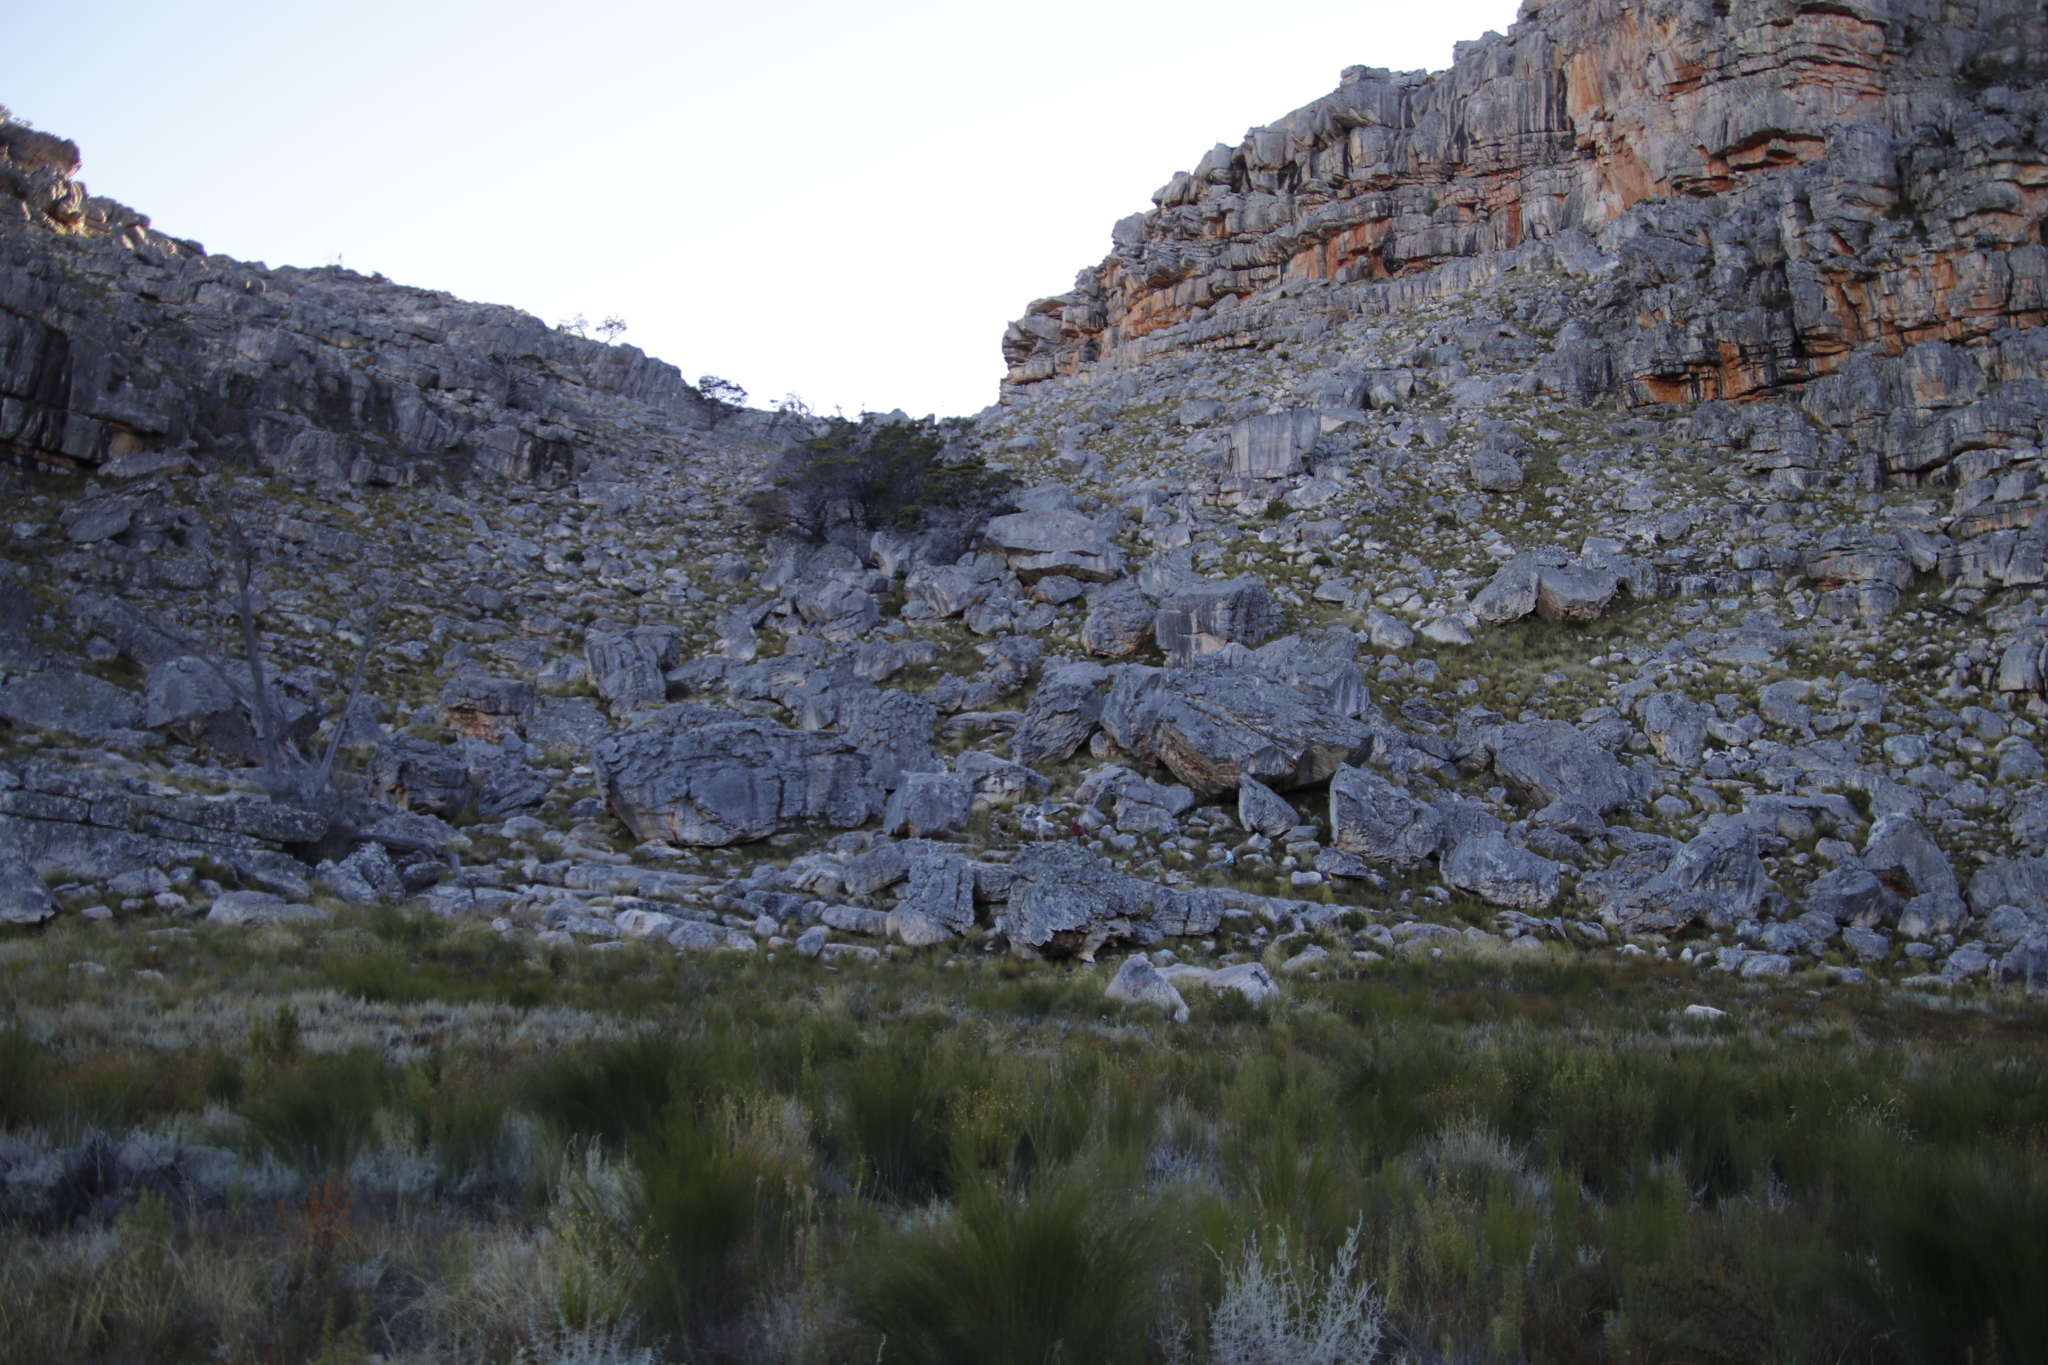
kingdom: Plantae
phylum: Tracheophyta
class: Pinopsida
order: Pinales
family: Cupressaceae
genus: Widdringtonia
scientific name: Widdringtonia nodiflora
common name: Cape cypress
